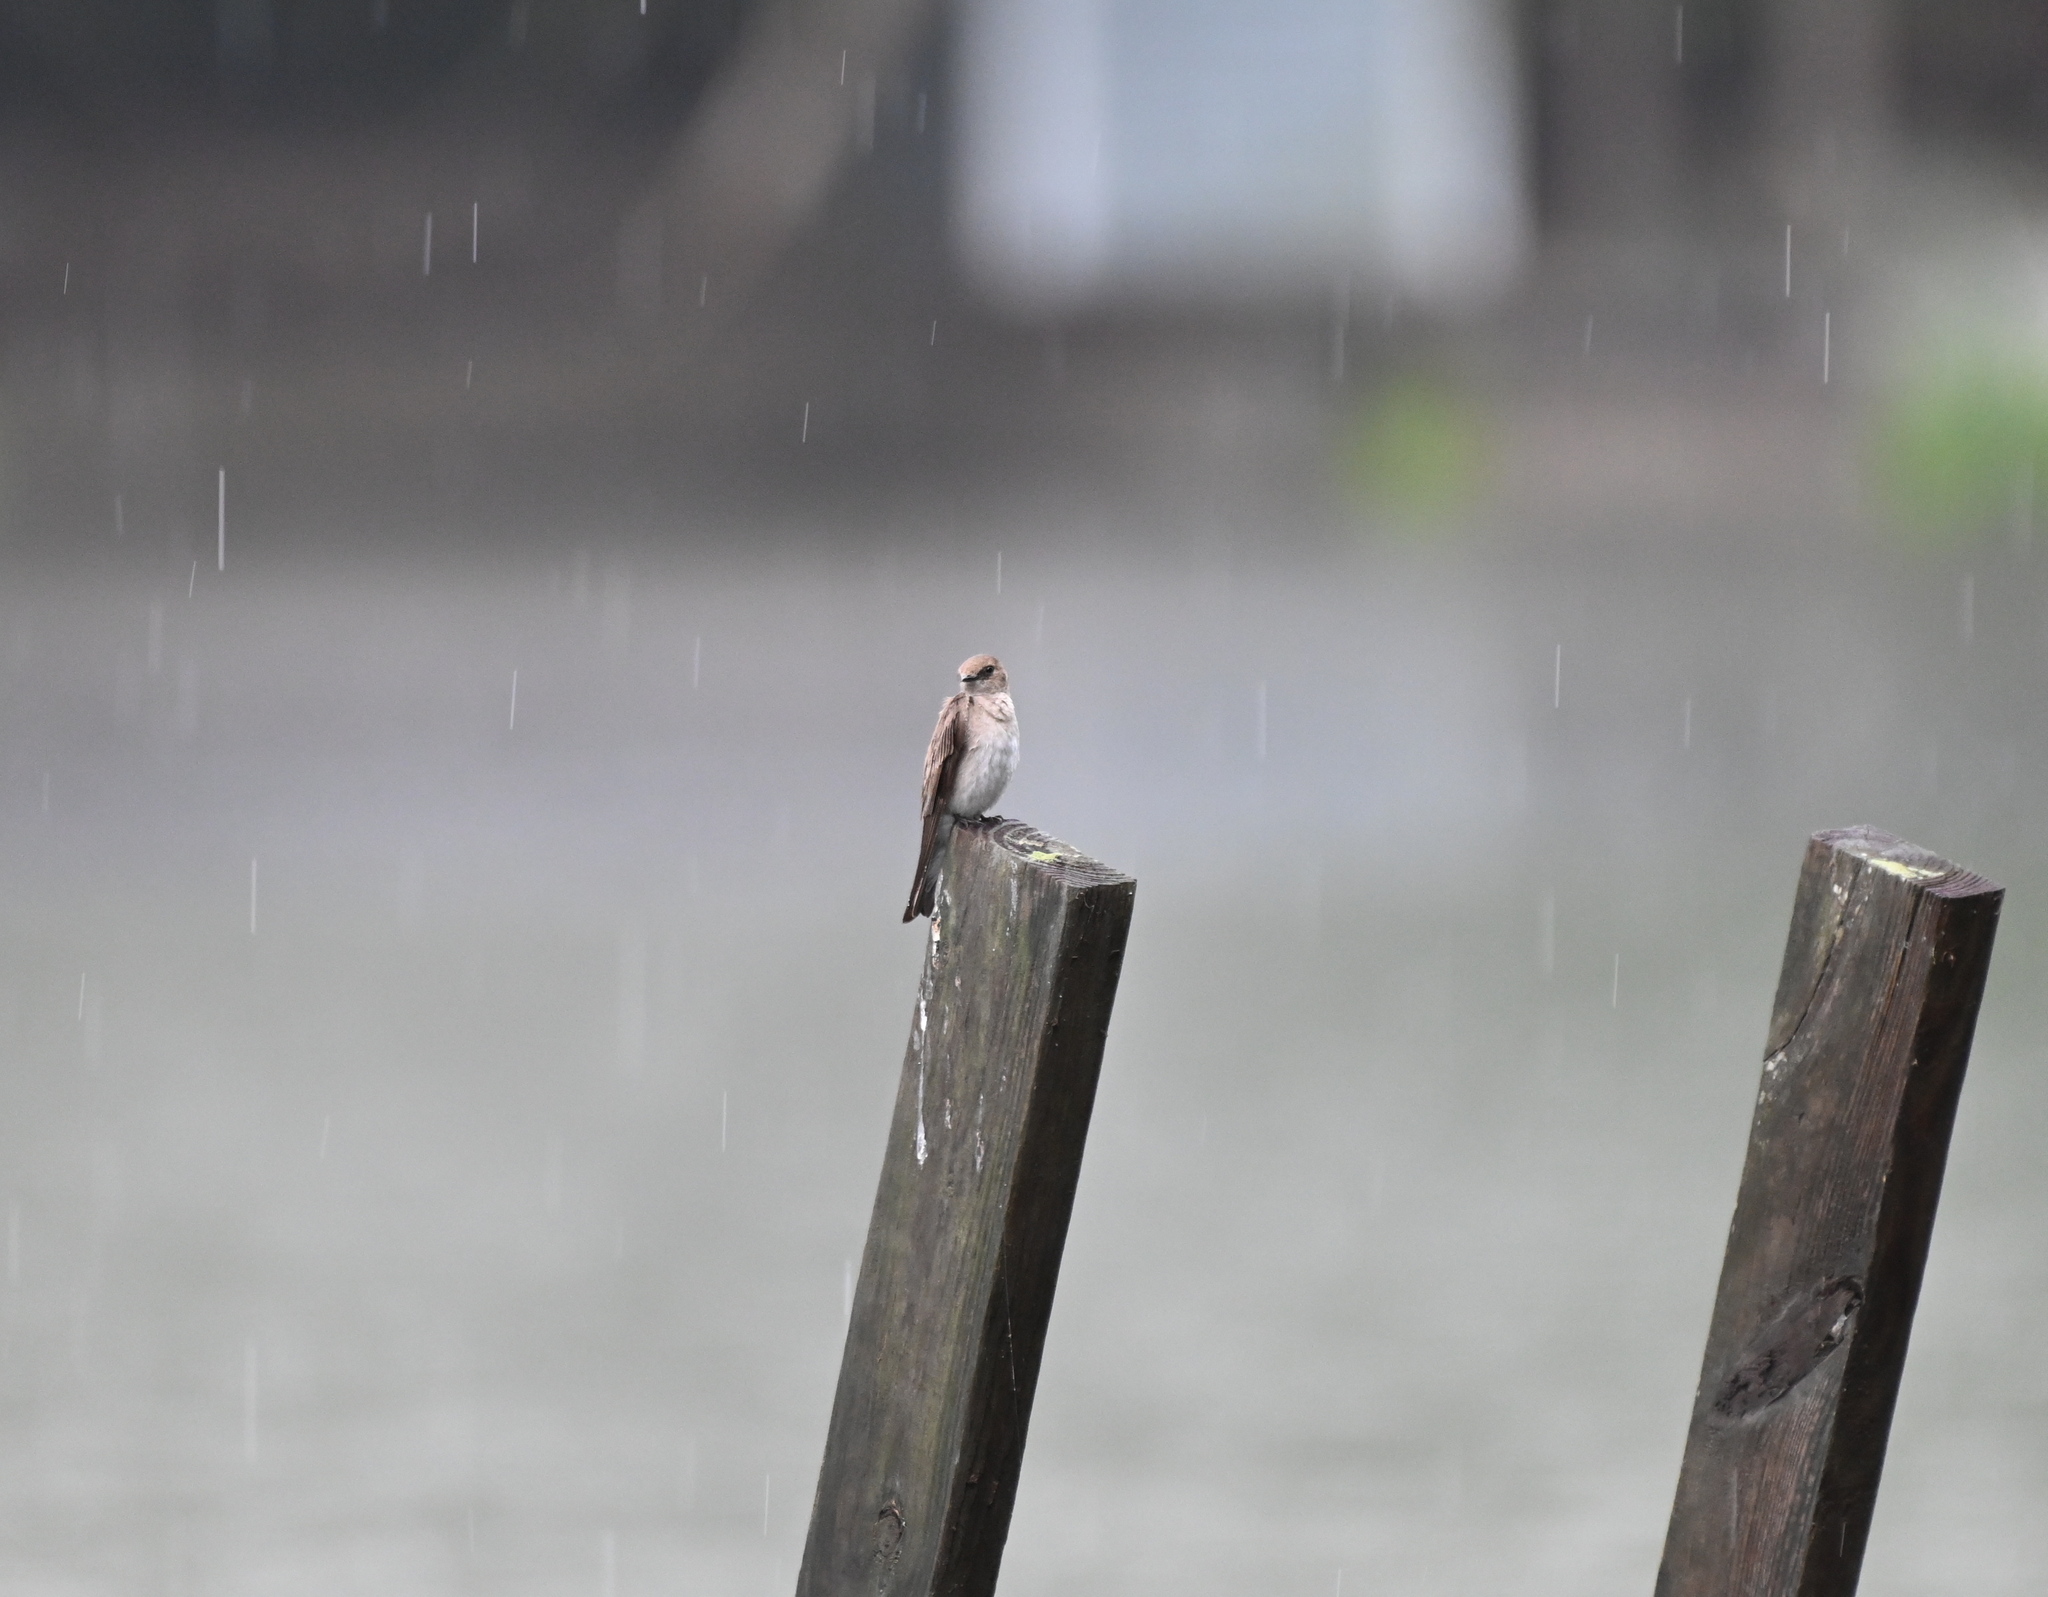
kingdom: Animalia
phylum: Chordata
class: Aves
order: Passeriformes
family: Hirundinidae
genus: Stelgidopteryx
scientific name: Stelgidopteryx serripennis
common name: Northern rough-winged swallow
